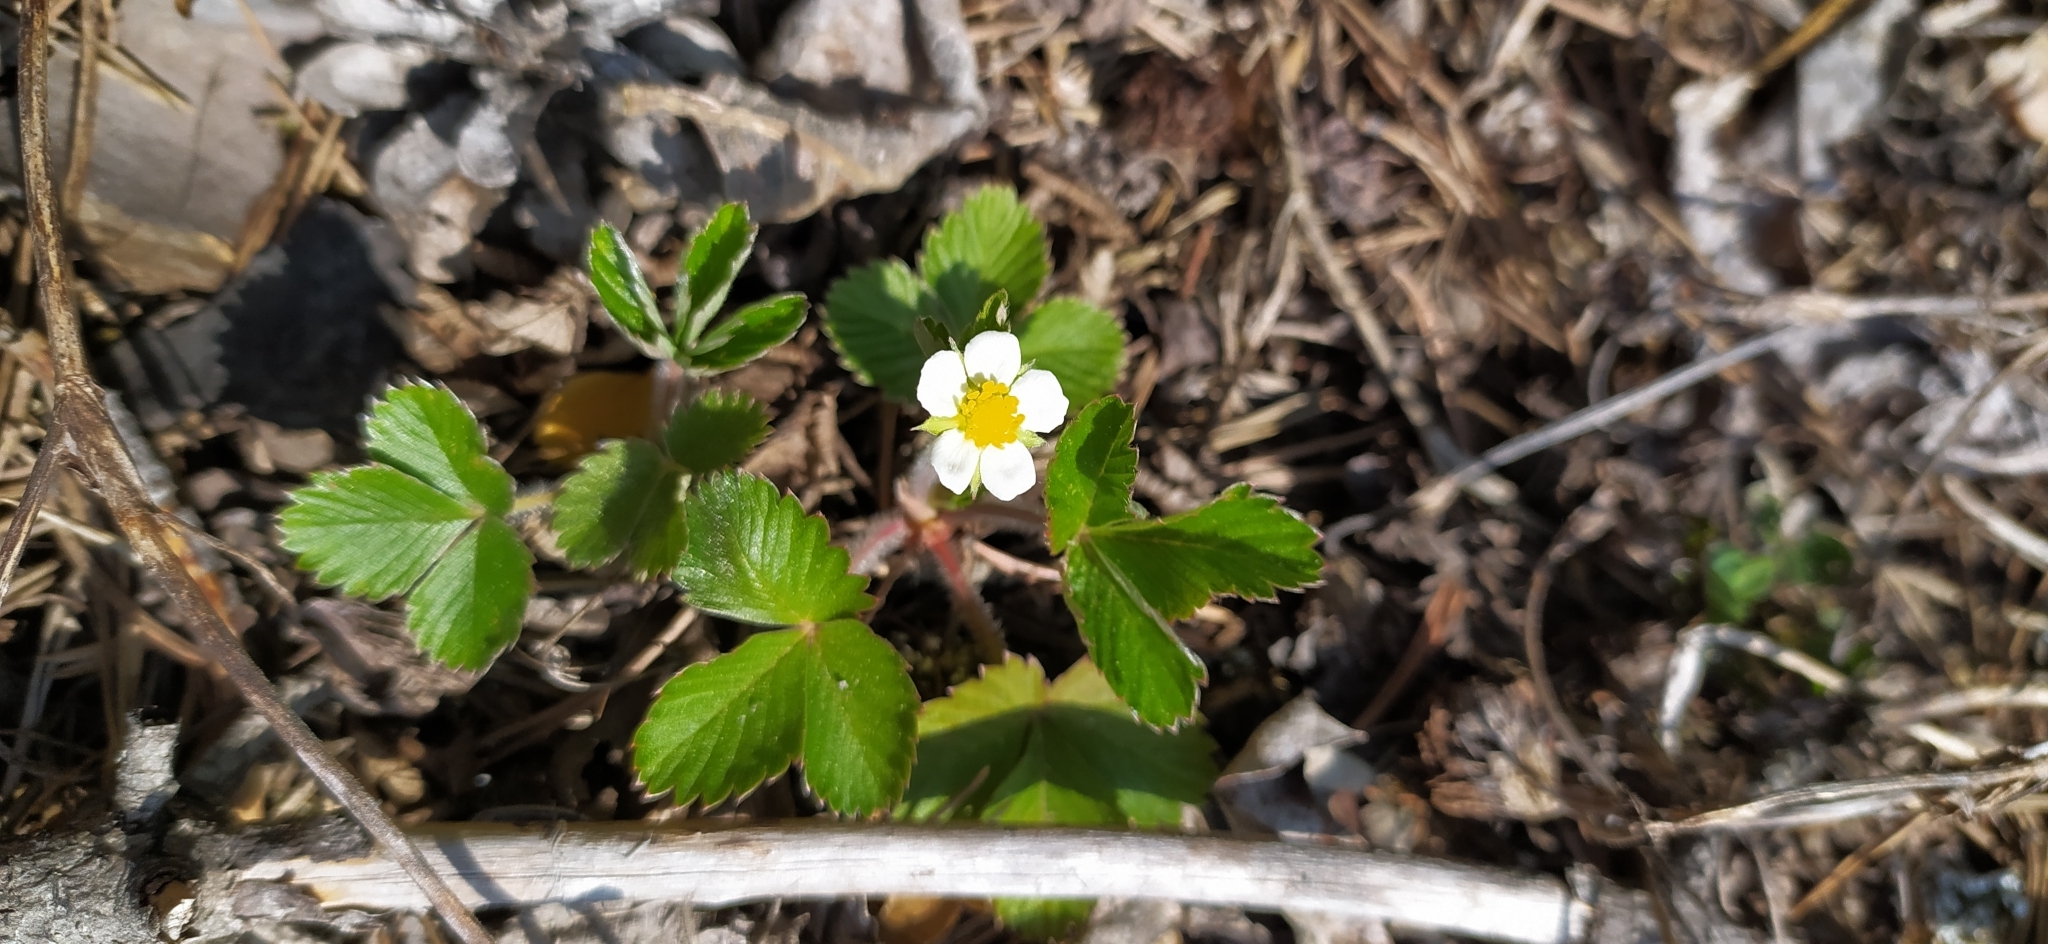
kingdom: Plantae
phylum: Tracheophyta
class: Magnoliopsida
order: Rosales
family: Rosaceae
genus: Fragaria
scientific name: Fragaria vesca
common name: Wild strawberry
